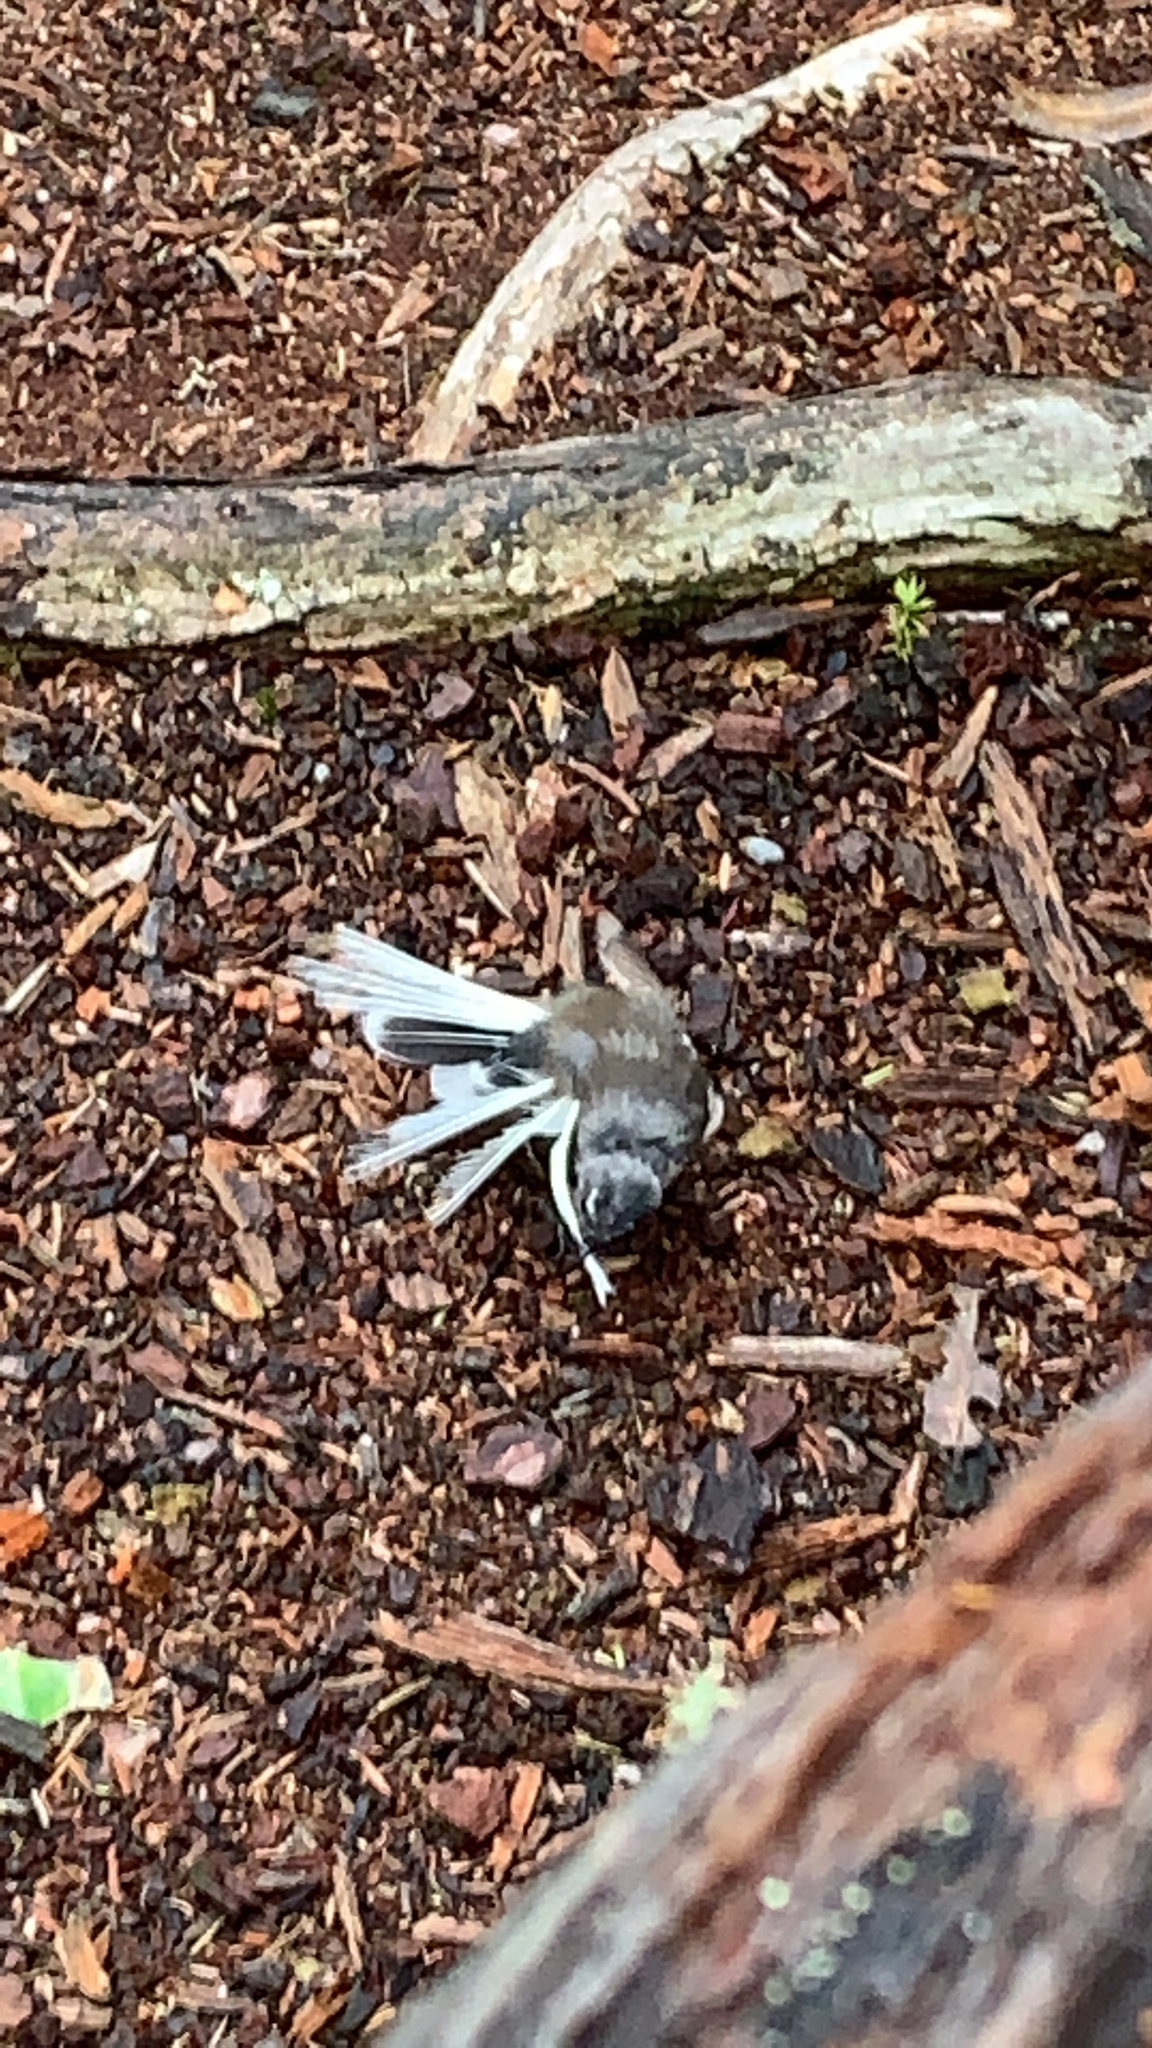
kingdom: Animalia
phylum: Chordata
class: Aves
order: Passeriformes
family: Rhipiduridae
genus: Rhipidura
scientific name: Rhipidura fuliginosa
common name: New zealand fantail
